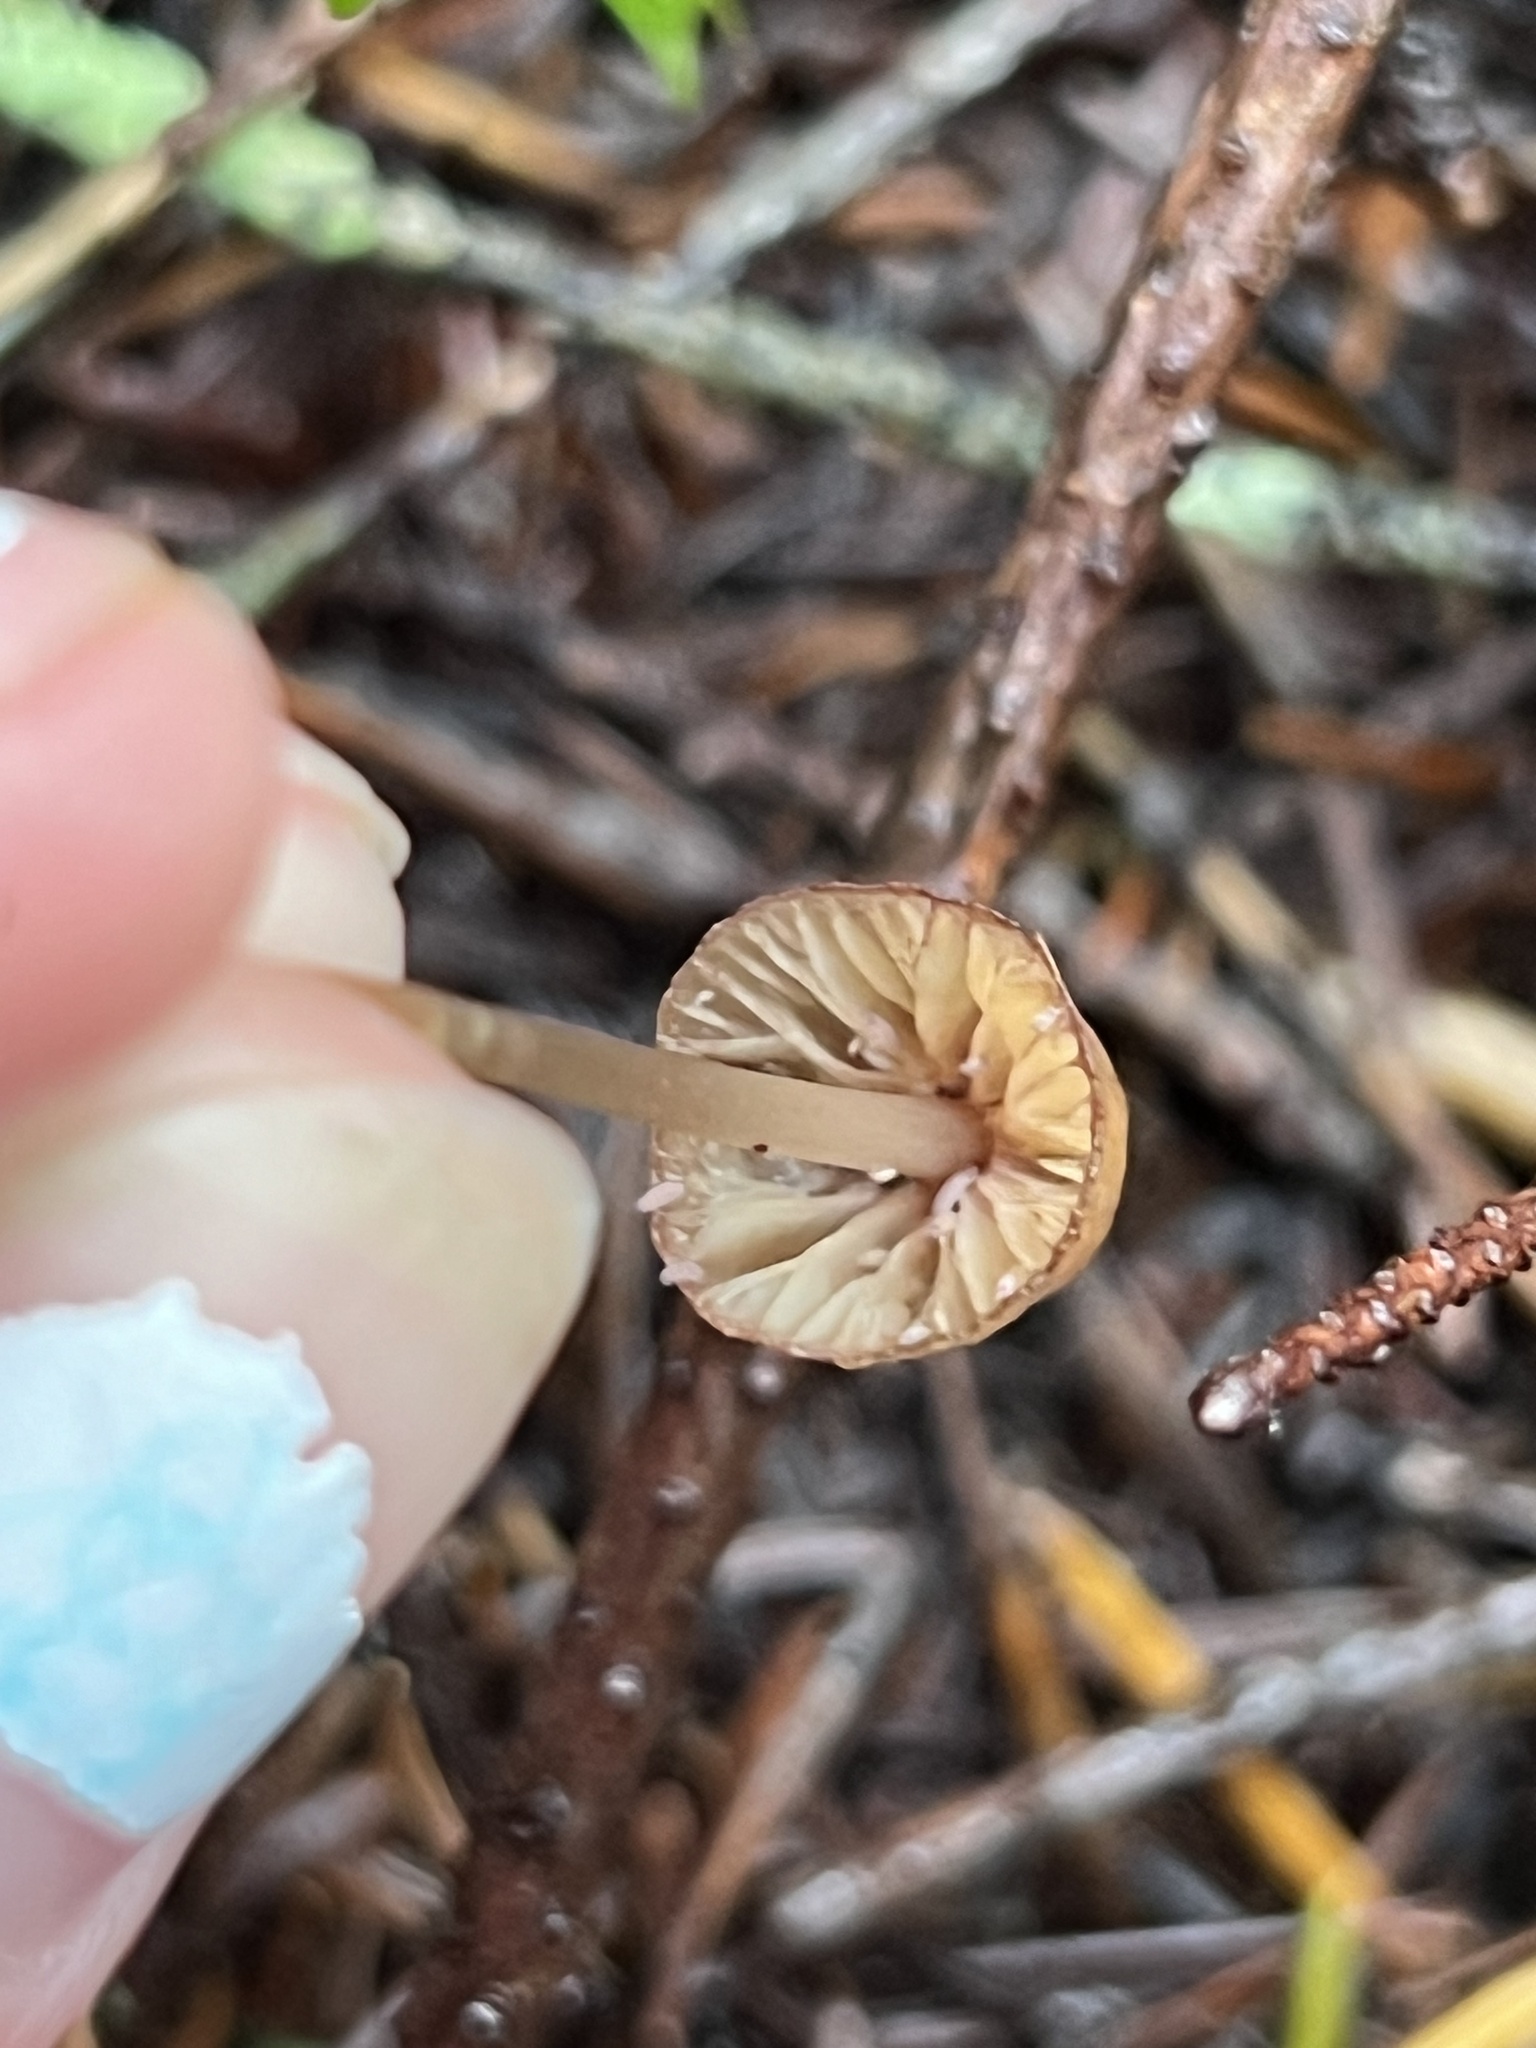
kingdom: Fungi
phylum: Basidiomycota
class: Agaricomycetes
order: Agaricales
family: Mycenaceae
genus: Mycena
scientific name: Mycena
